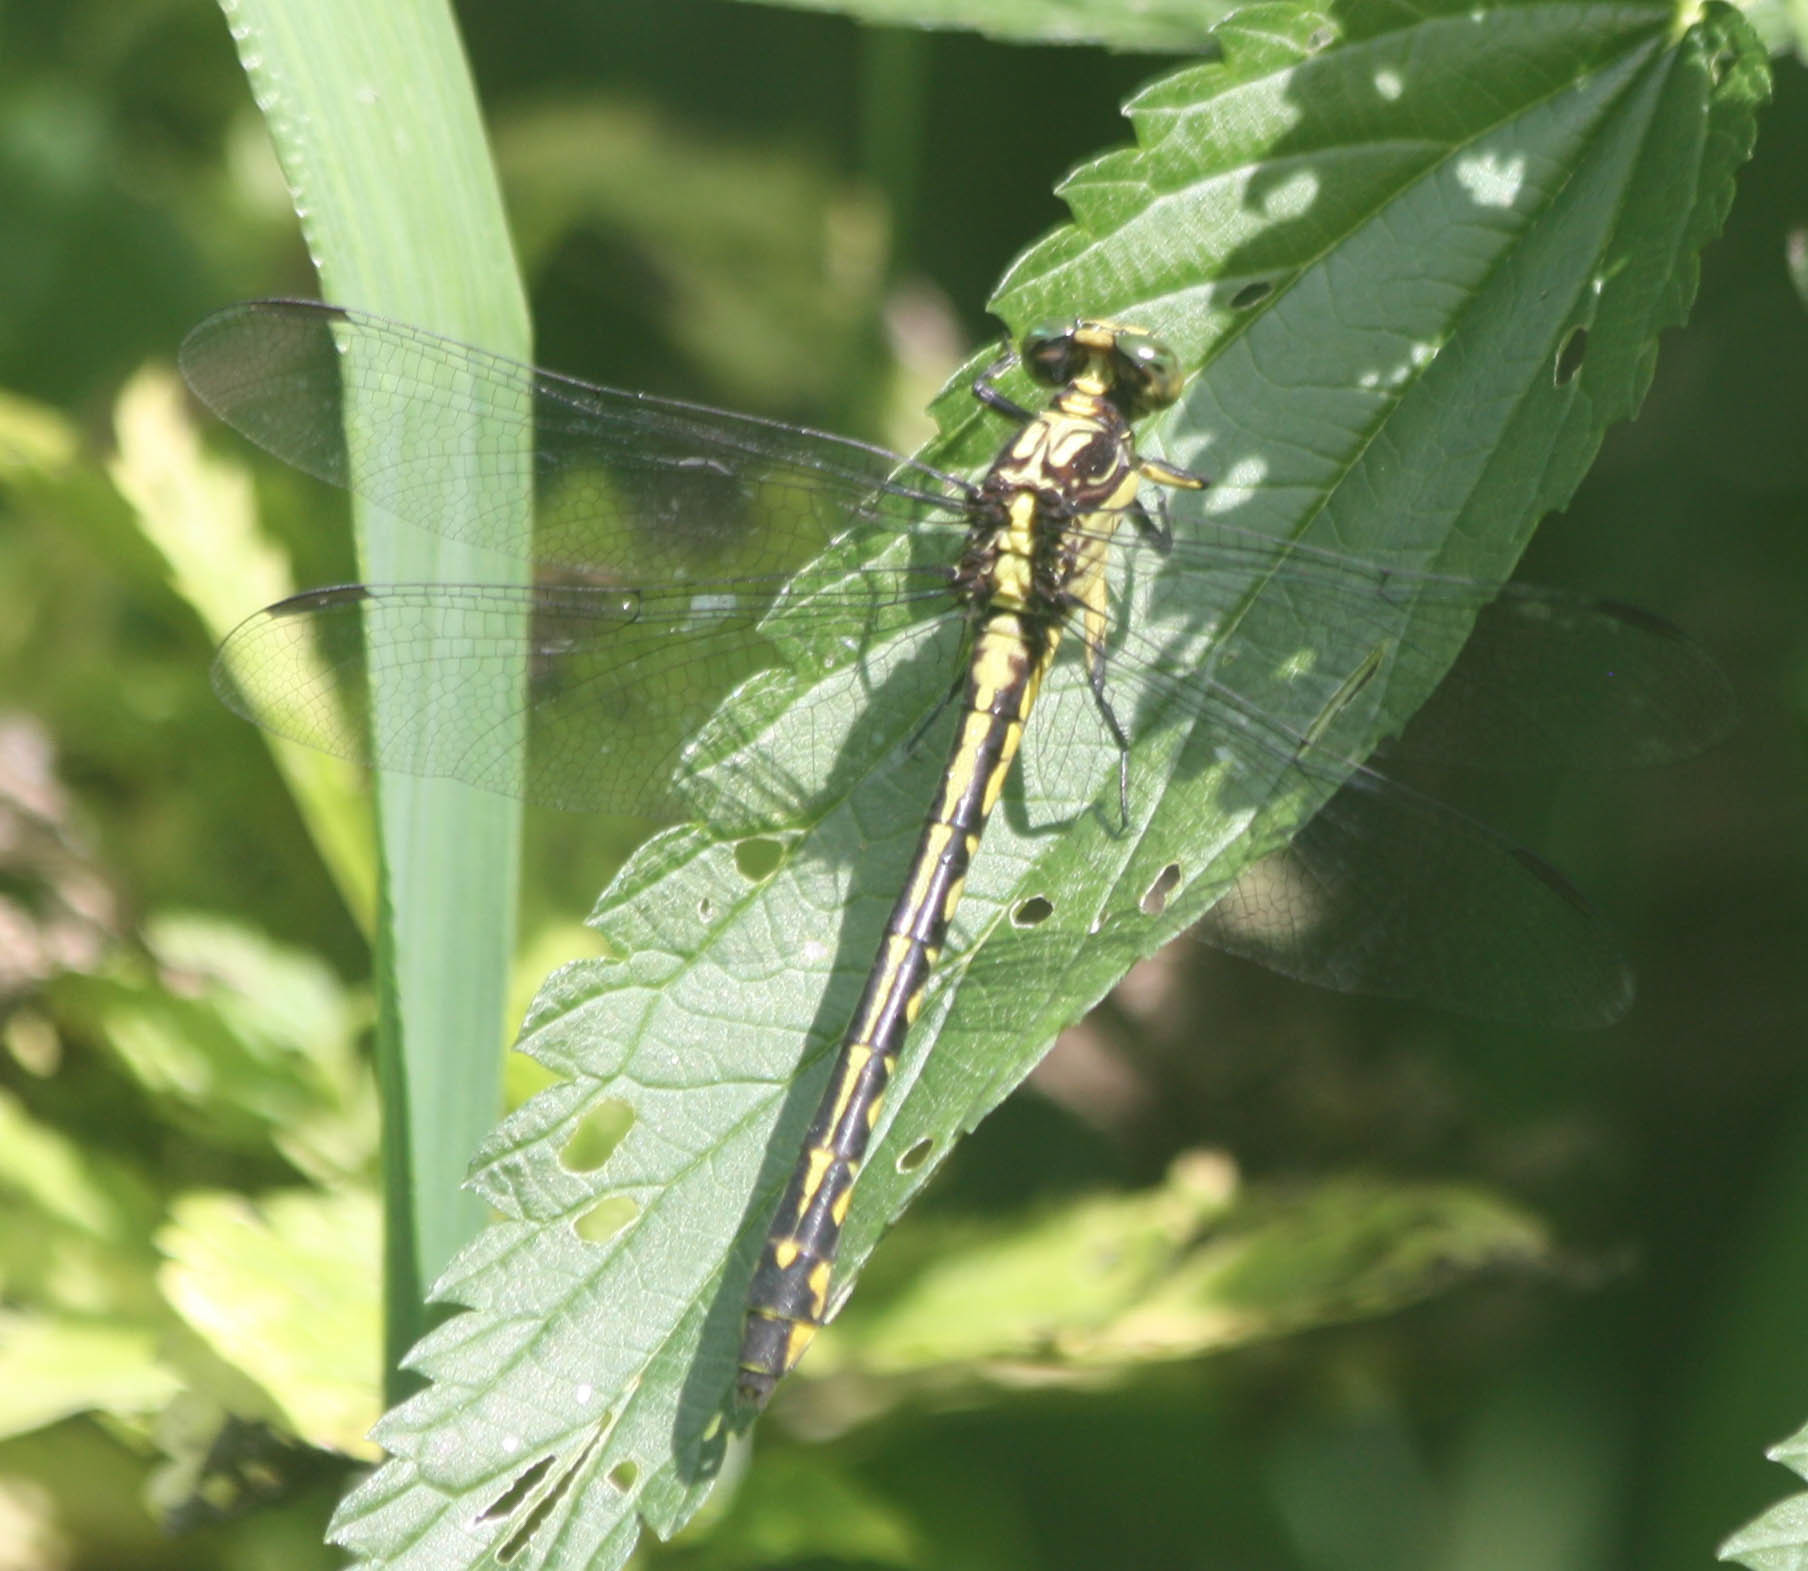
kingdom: Animalia
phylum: Arthropoda
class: Insecta
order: Odonata
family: Gomphidae
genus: Stylurus
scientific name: Stylurus amnicola
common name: Riverine clubtail
